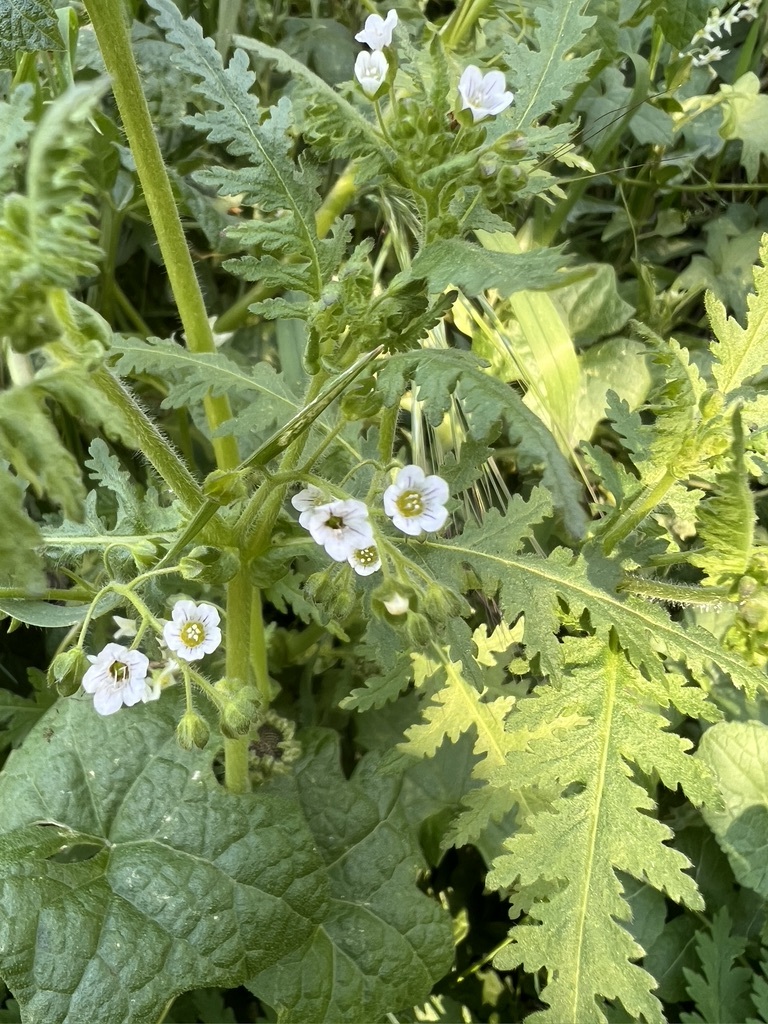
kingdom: Plantae
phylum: Tracheophyta
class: Magnoliopsida
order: Boraginales
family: Hydrophyllaceae
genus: Eucrypta
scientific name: Eucrypta chrysanthemifolia
